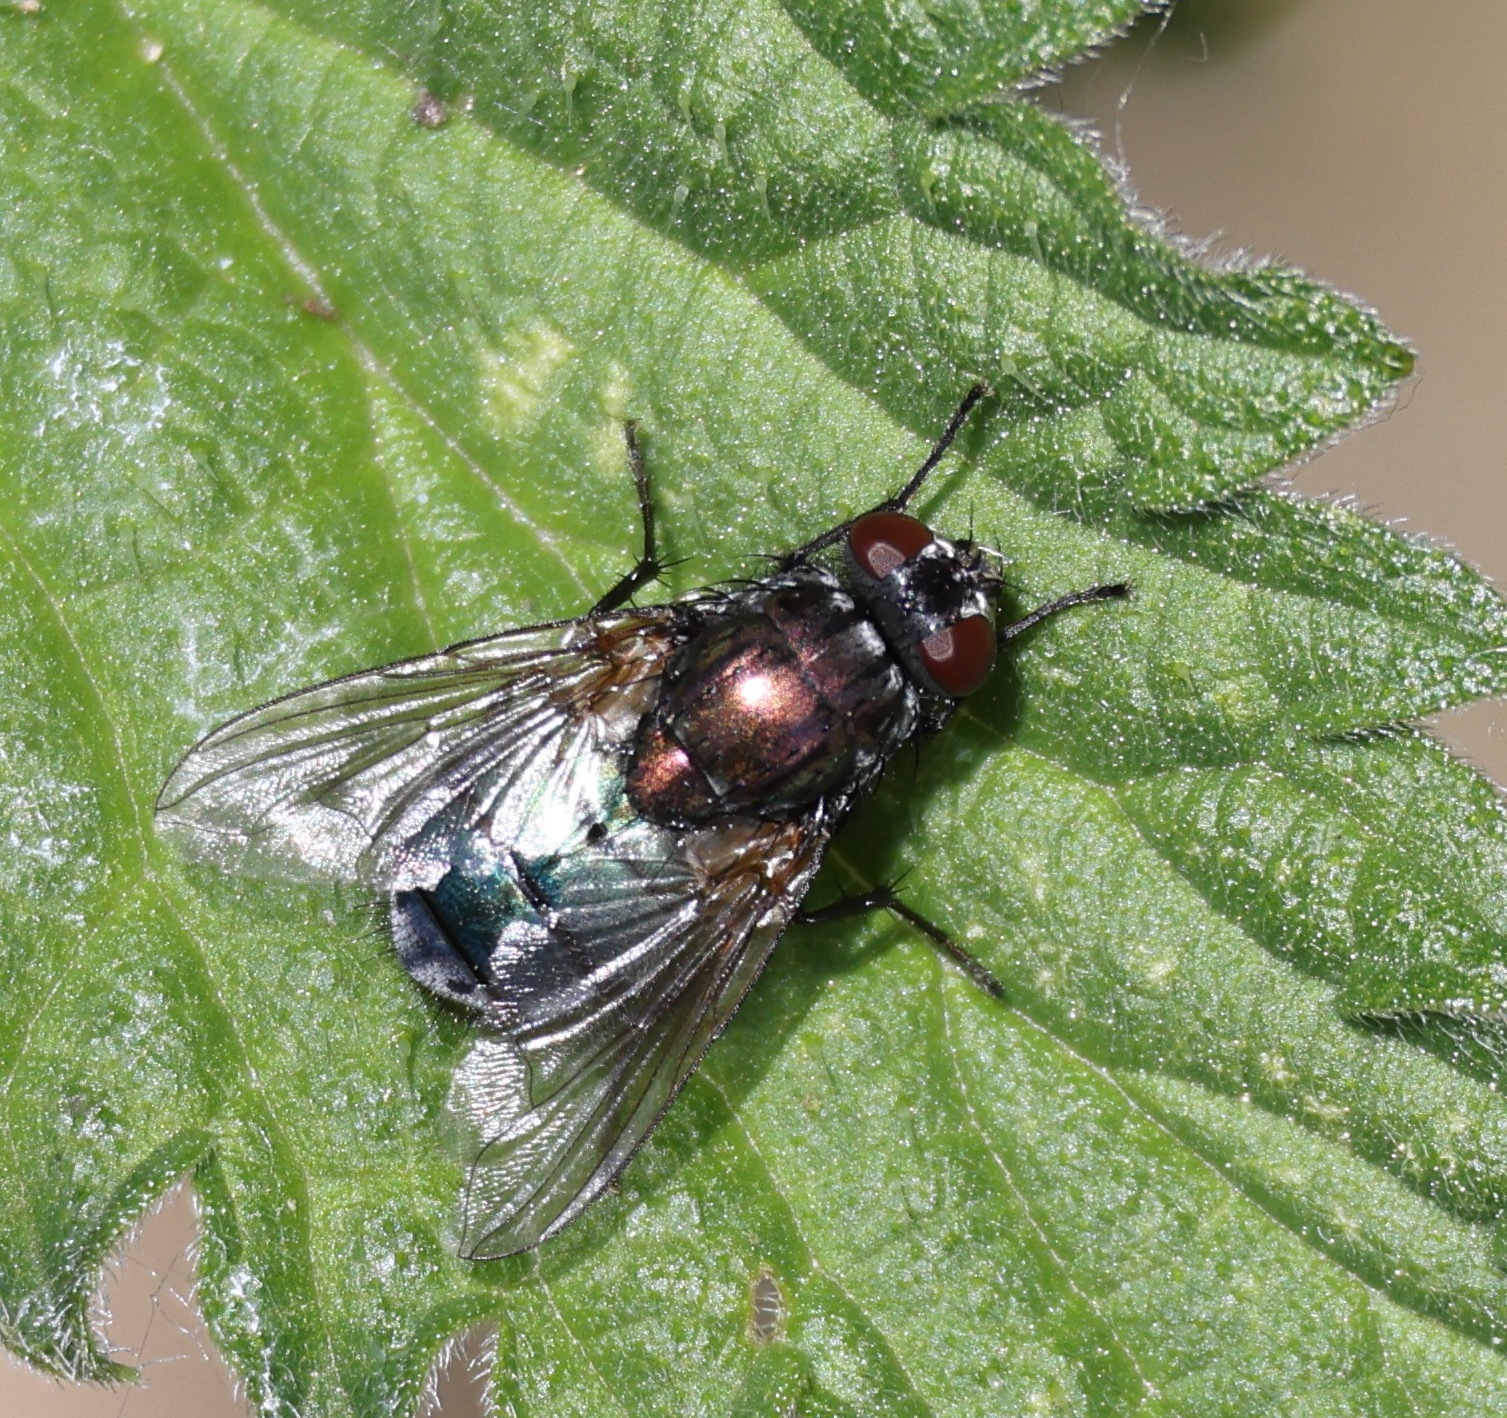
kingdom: Animalia
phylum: Arthropoda
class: Insecta
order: Diptera
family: Muscidae
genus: Dasyphora
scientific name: Dasyphora cyanella
